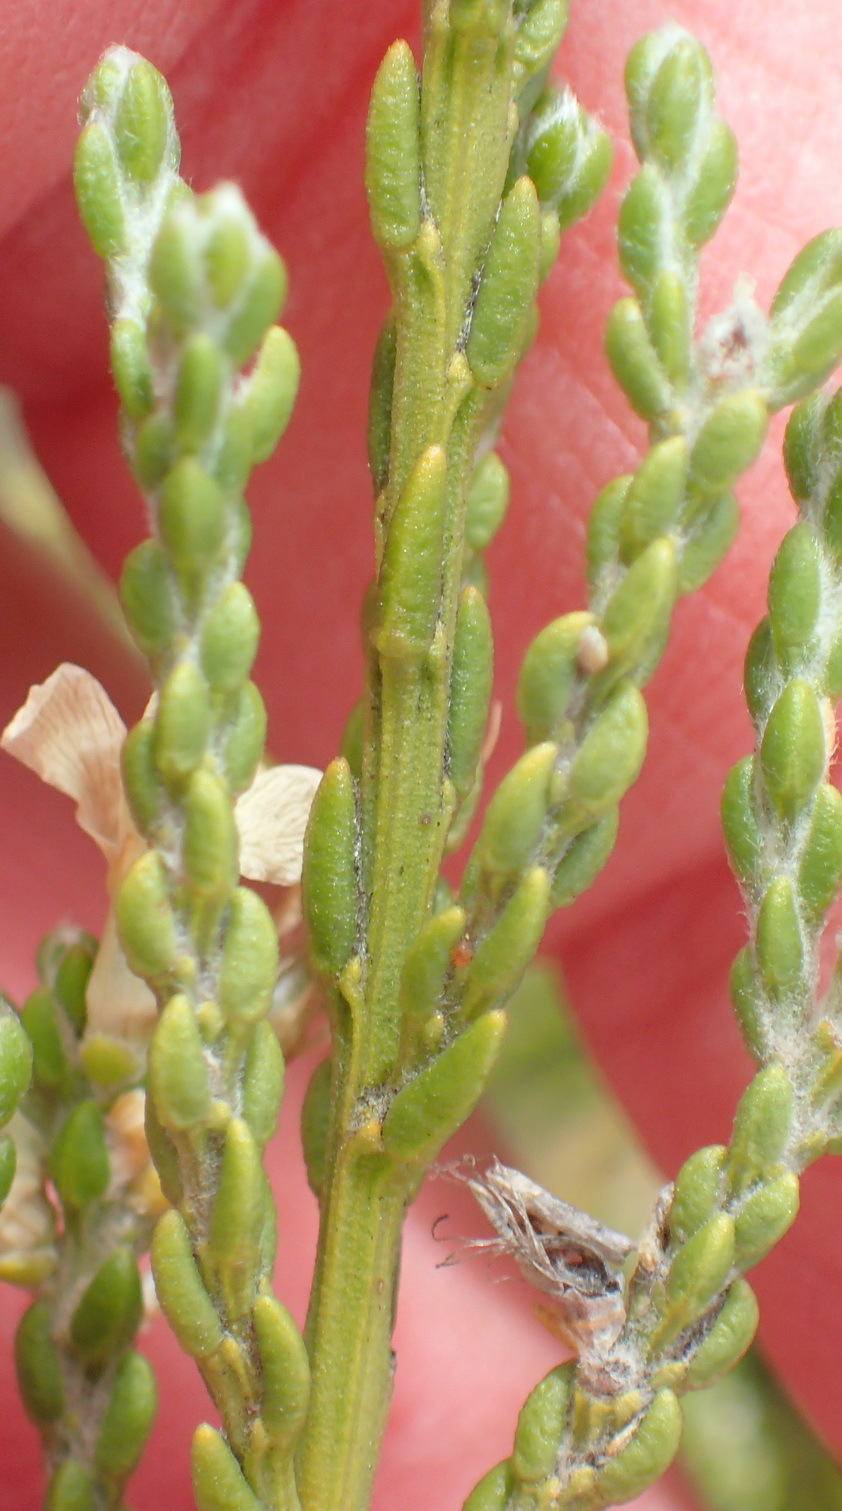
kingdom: Plantae
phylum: Tracheophyta
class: Magnoliopsida
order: Fabales
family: Fabaceae
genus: Amphithalea
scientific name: Amphithalea vlokii
